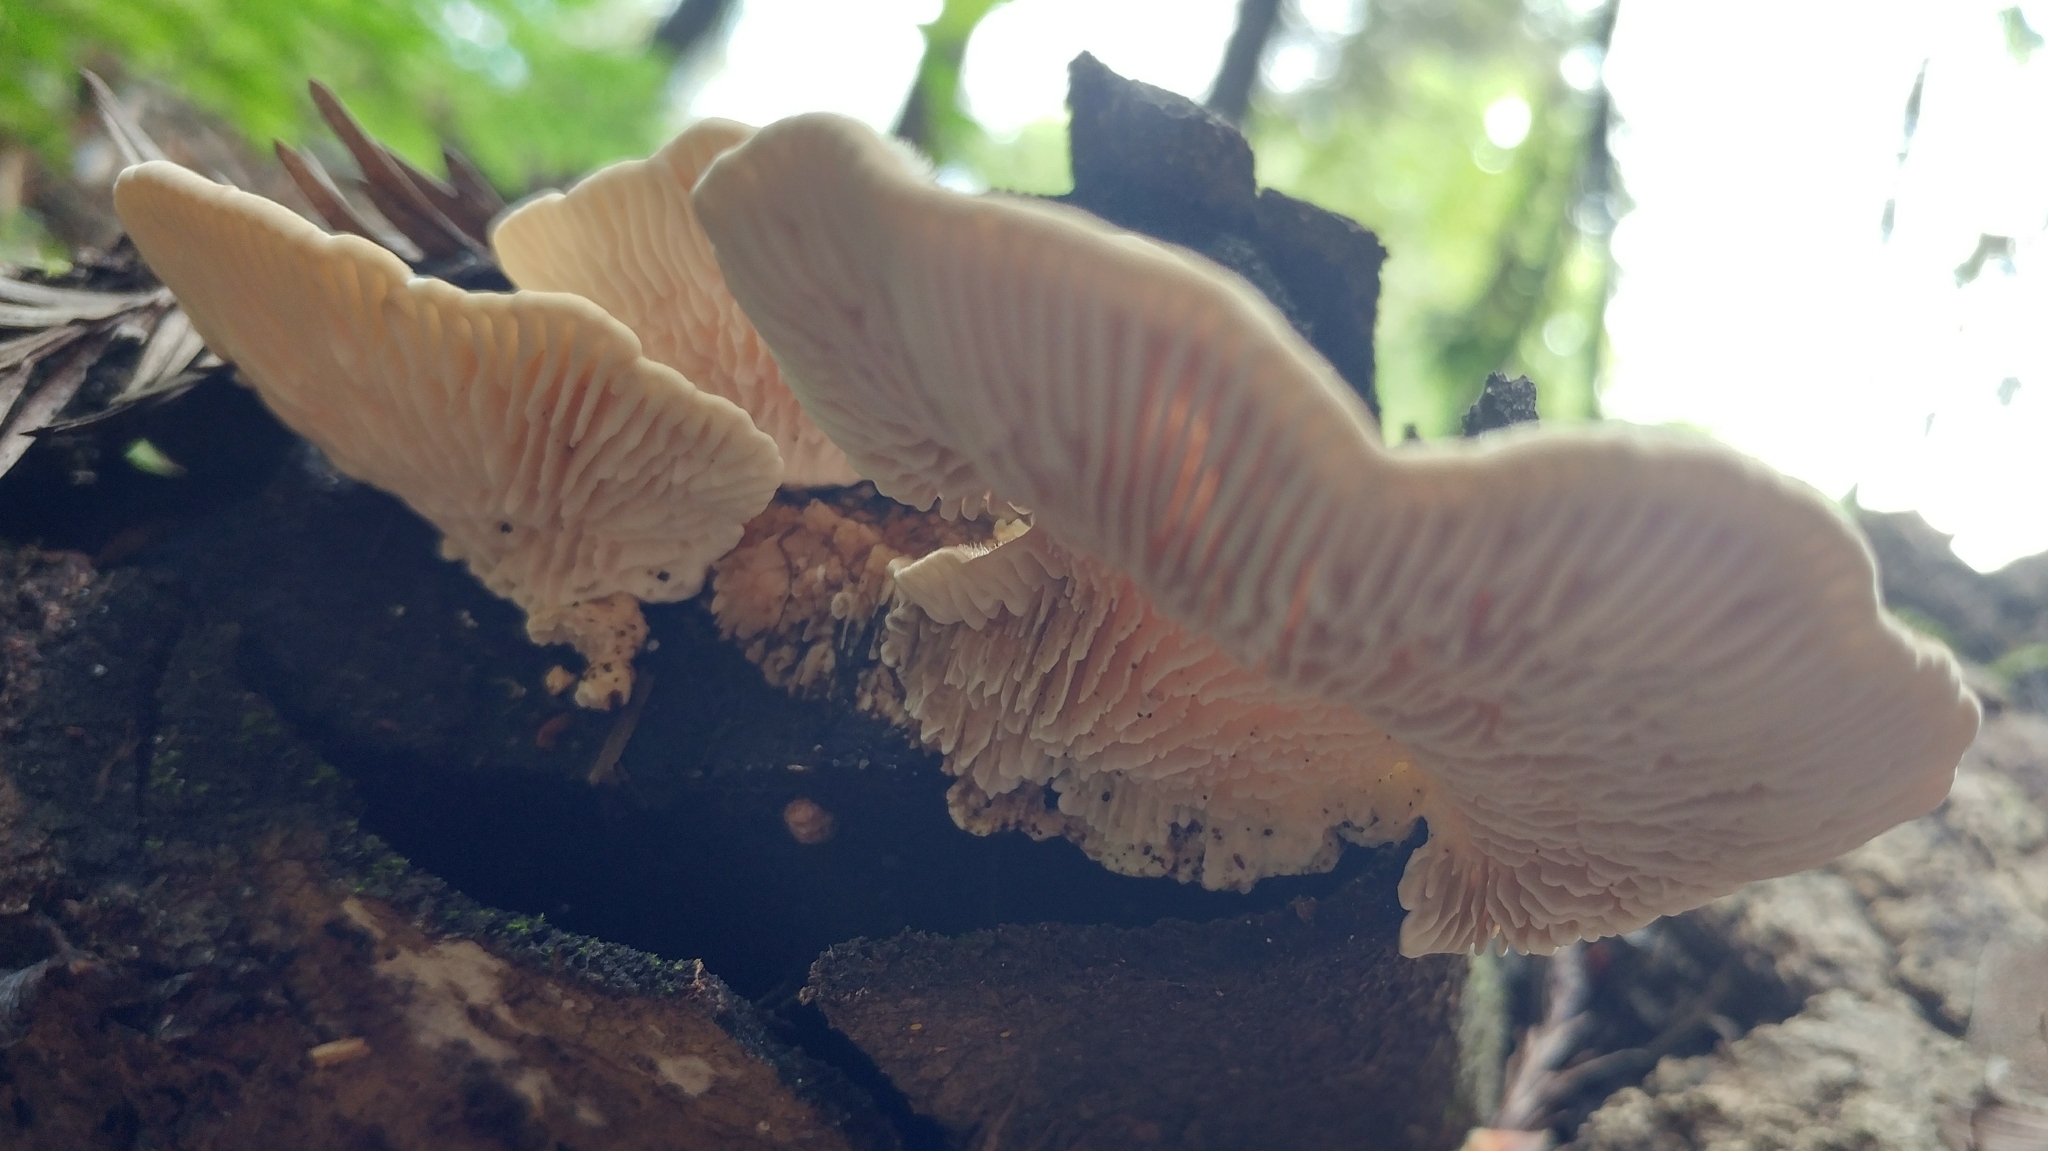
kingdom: Fungi
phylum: Basidiomycota
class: Agaricomycetes
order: Polyporales
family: Polyporaceae
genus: Lenzites
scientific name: Lenzites betulinus
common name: Birch mazegill
